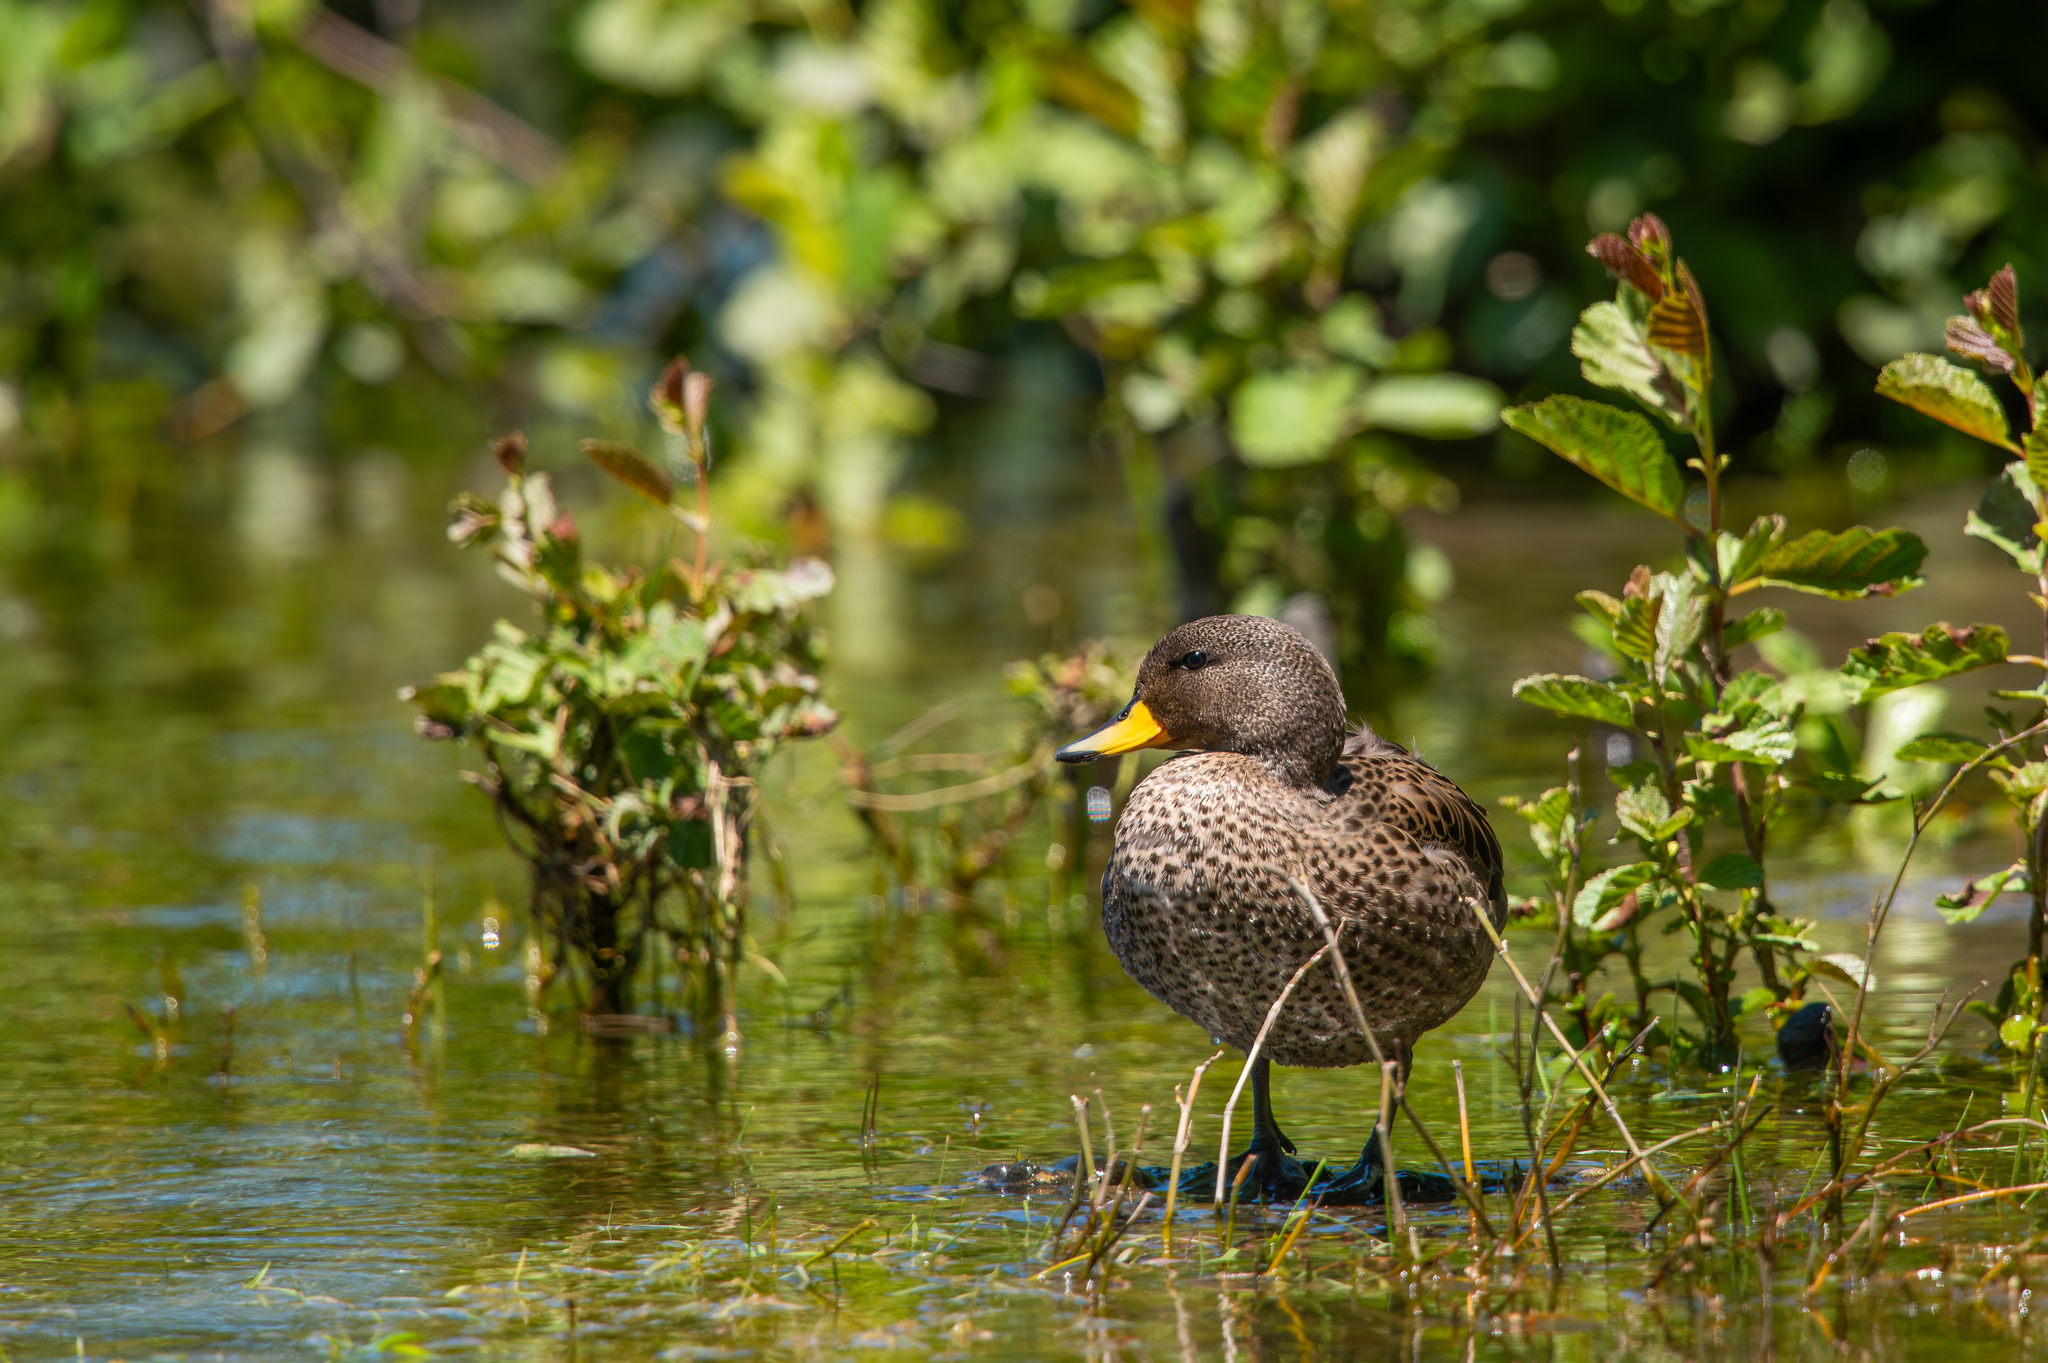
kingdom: Animalia
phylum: Chordata
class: Aves
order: Anseriformes
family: Anatidae
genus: Anas
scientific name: Anas flavirostris
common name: Yellow-billed teal
